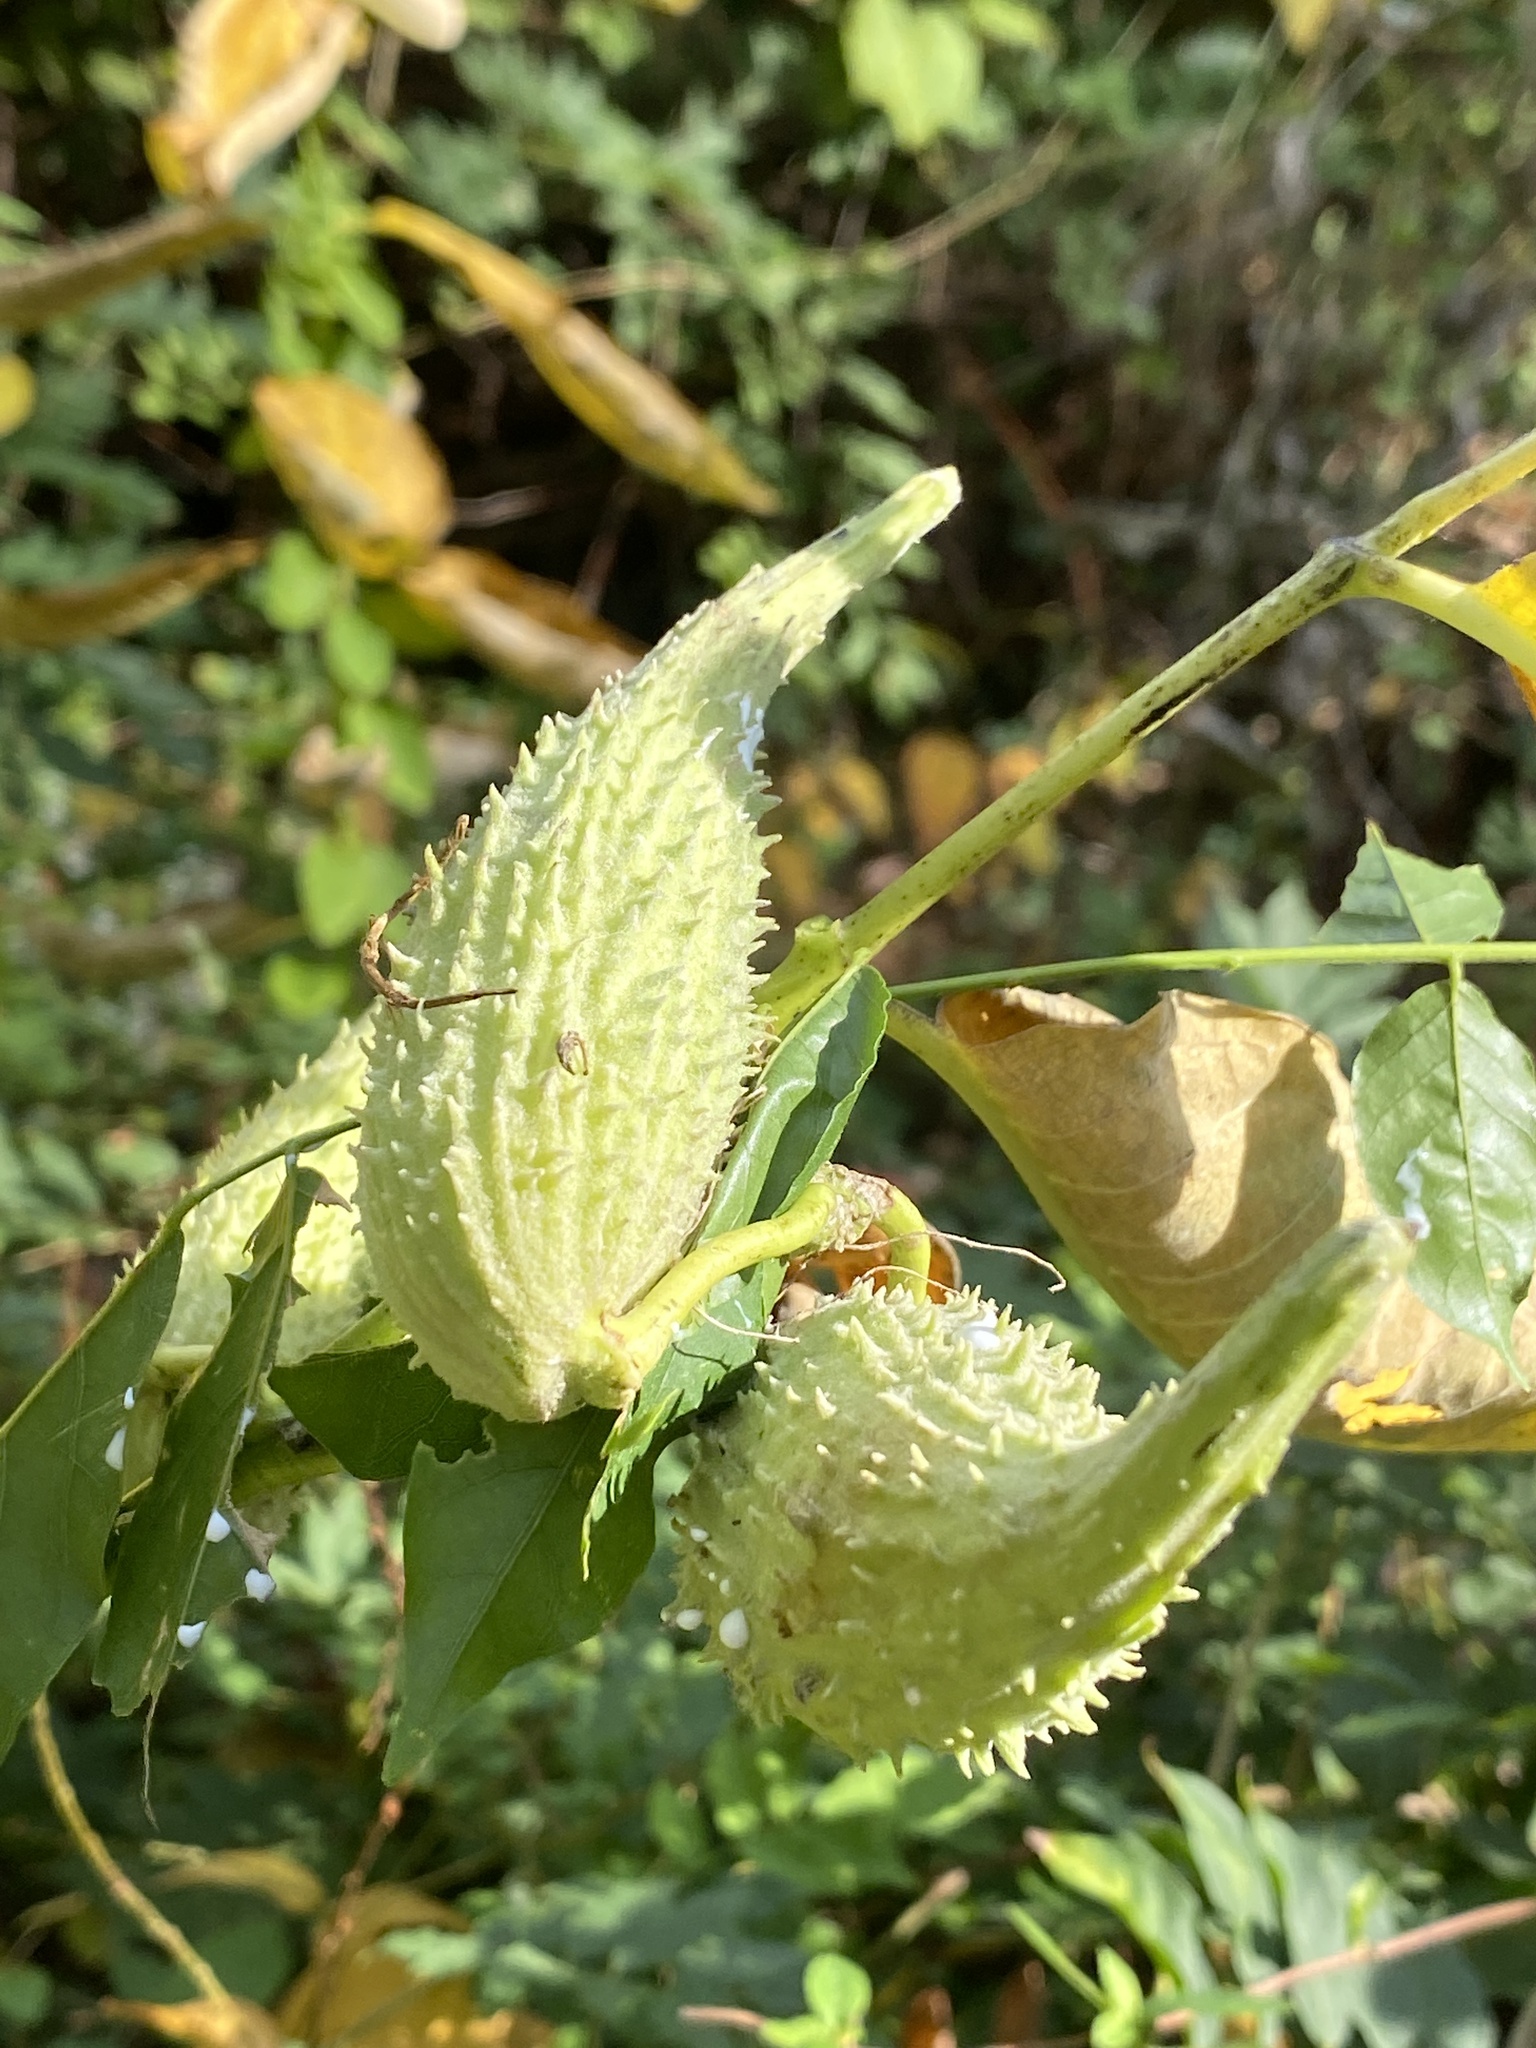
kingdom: Plantae
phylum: Tracheophyta
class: Magnoliopsida
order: Gentianales
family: Apocynaceae
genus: Asclepias
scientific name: Asclepias syriaca
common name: Common milkweed
